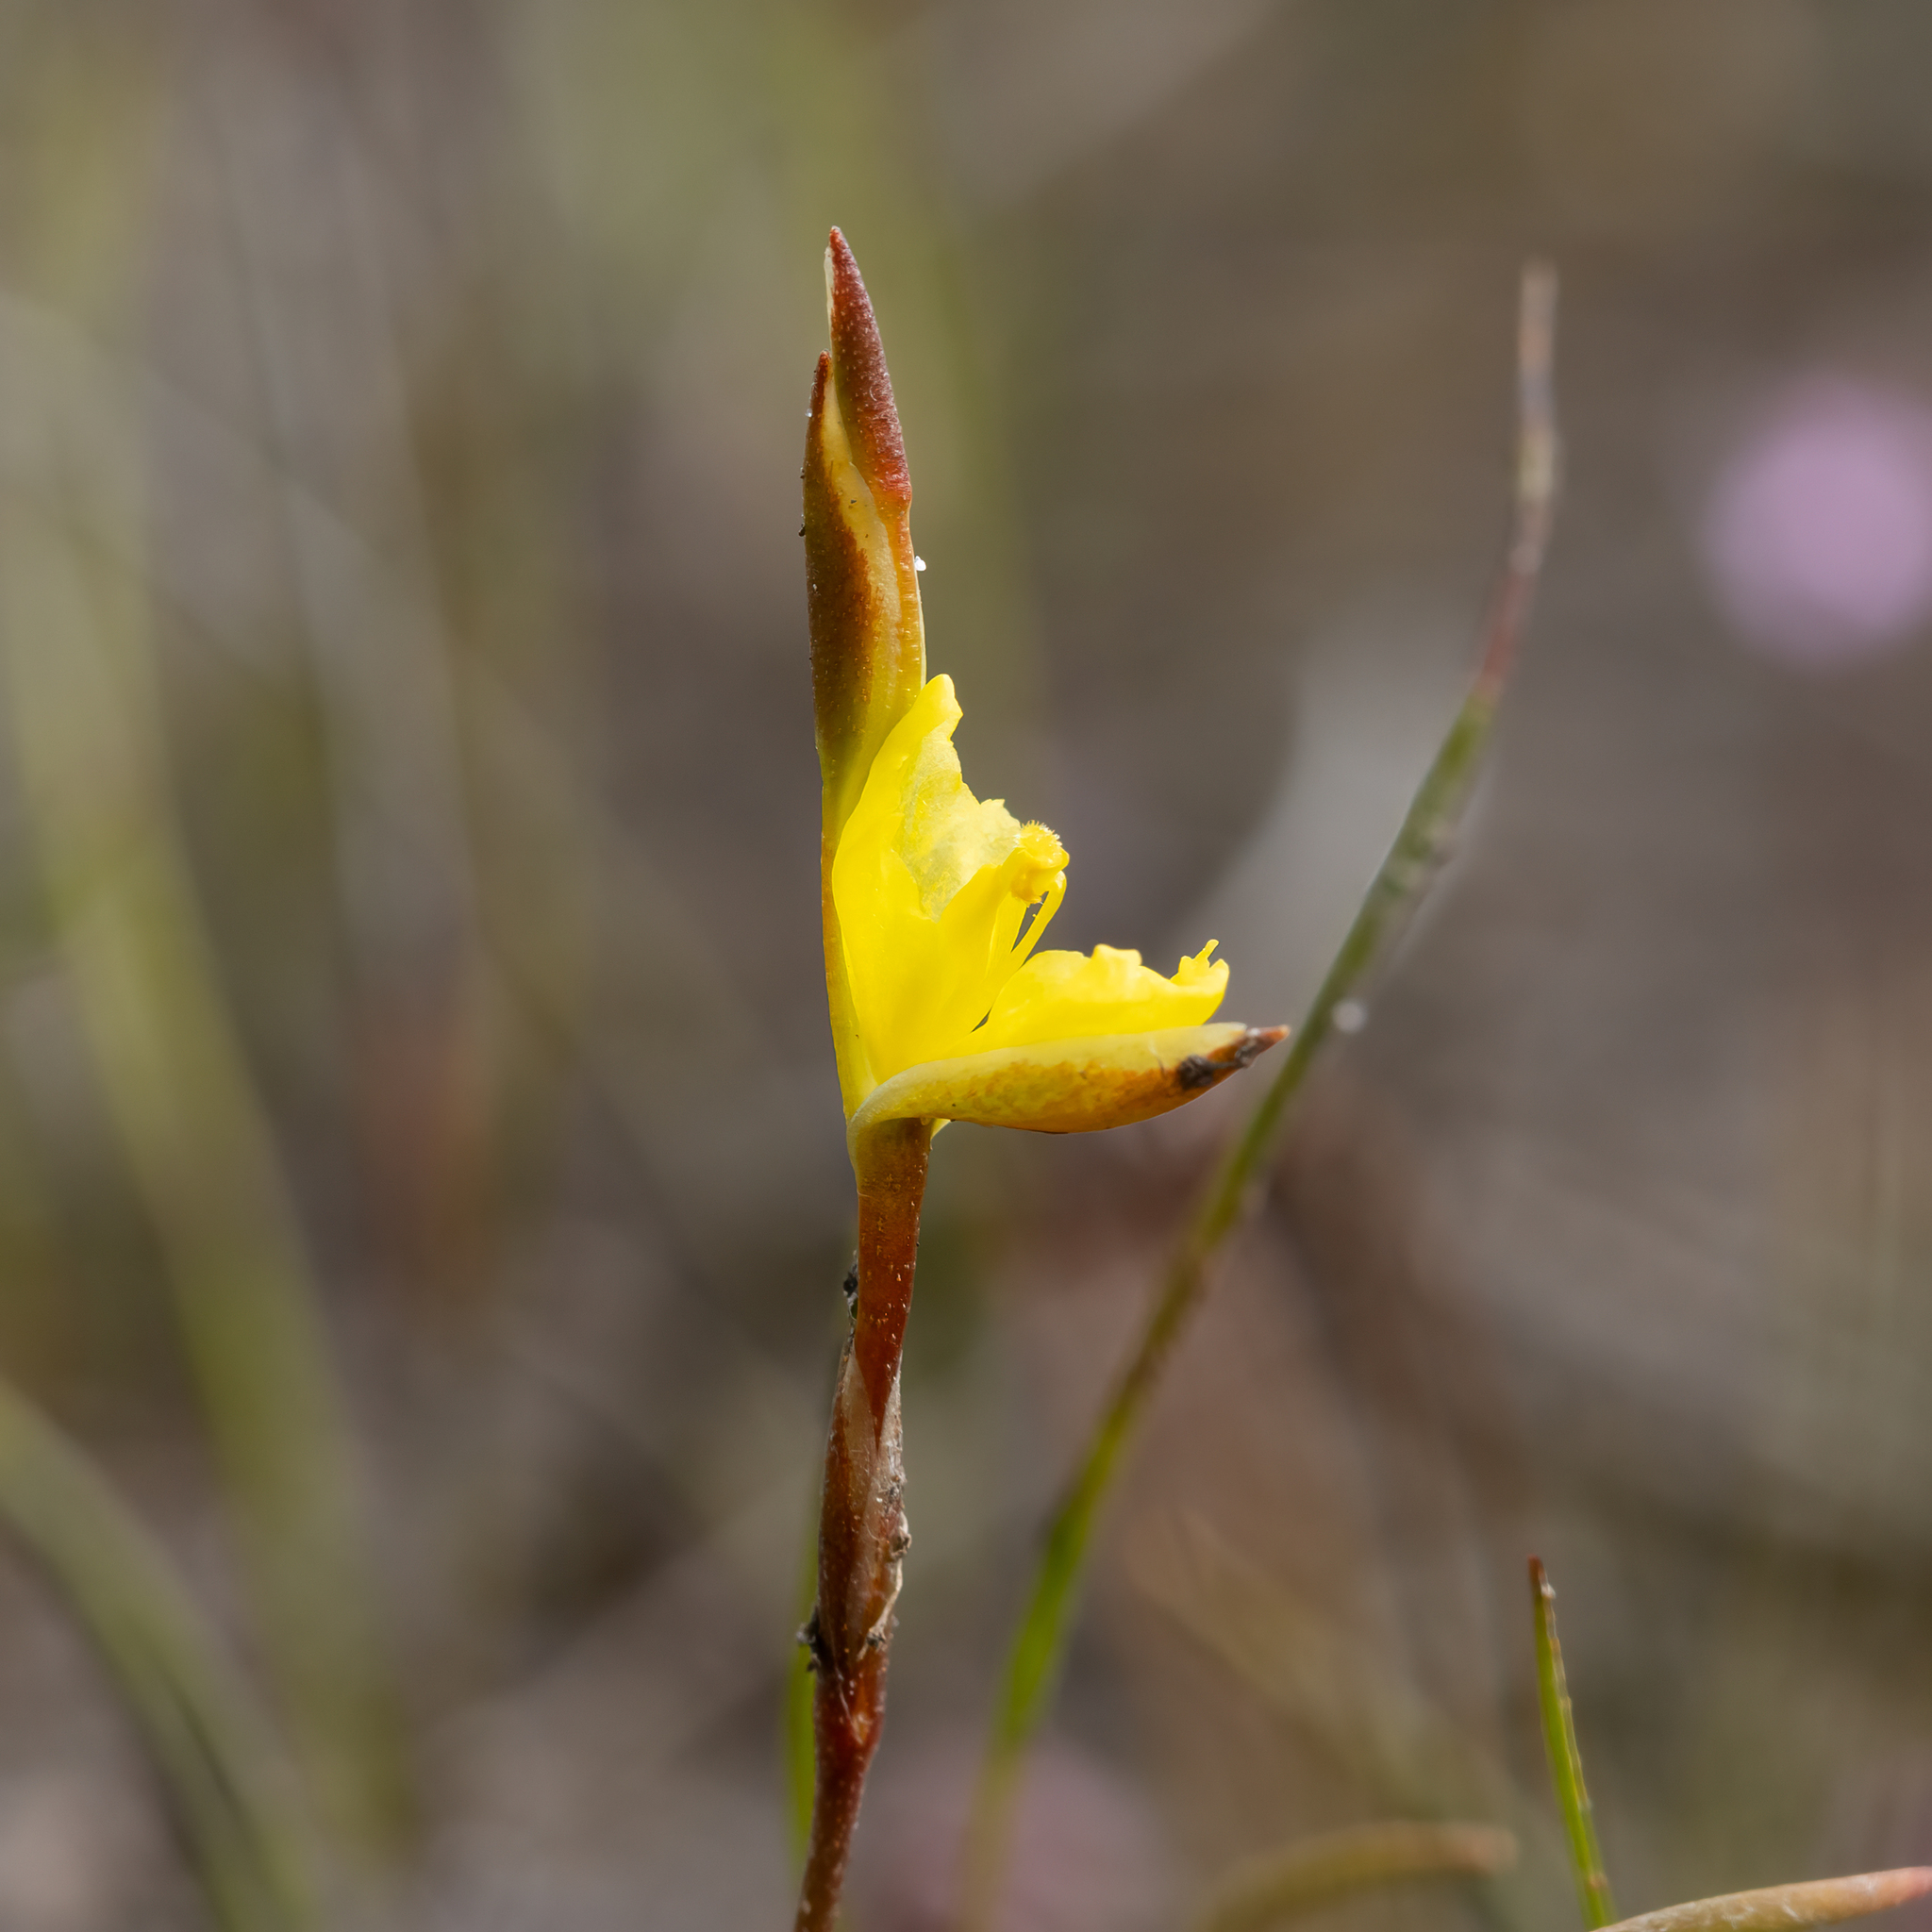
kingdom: Plantae
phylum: Tracheophyta
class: Liliopsida
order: Commelinales
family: Philydraceae
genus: Philydrella
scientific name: Philydrella pygmaea
